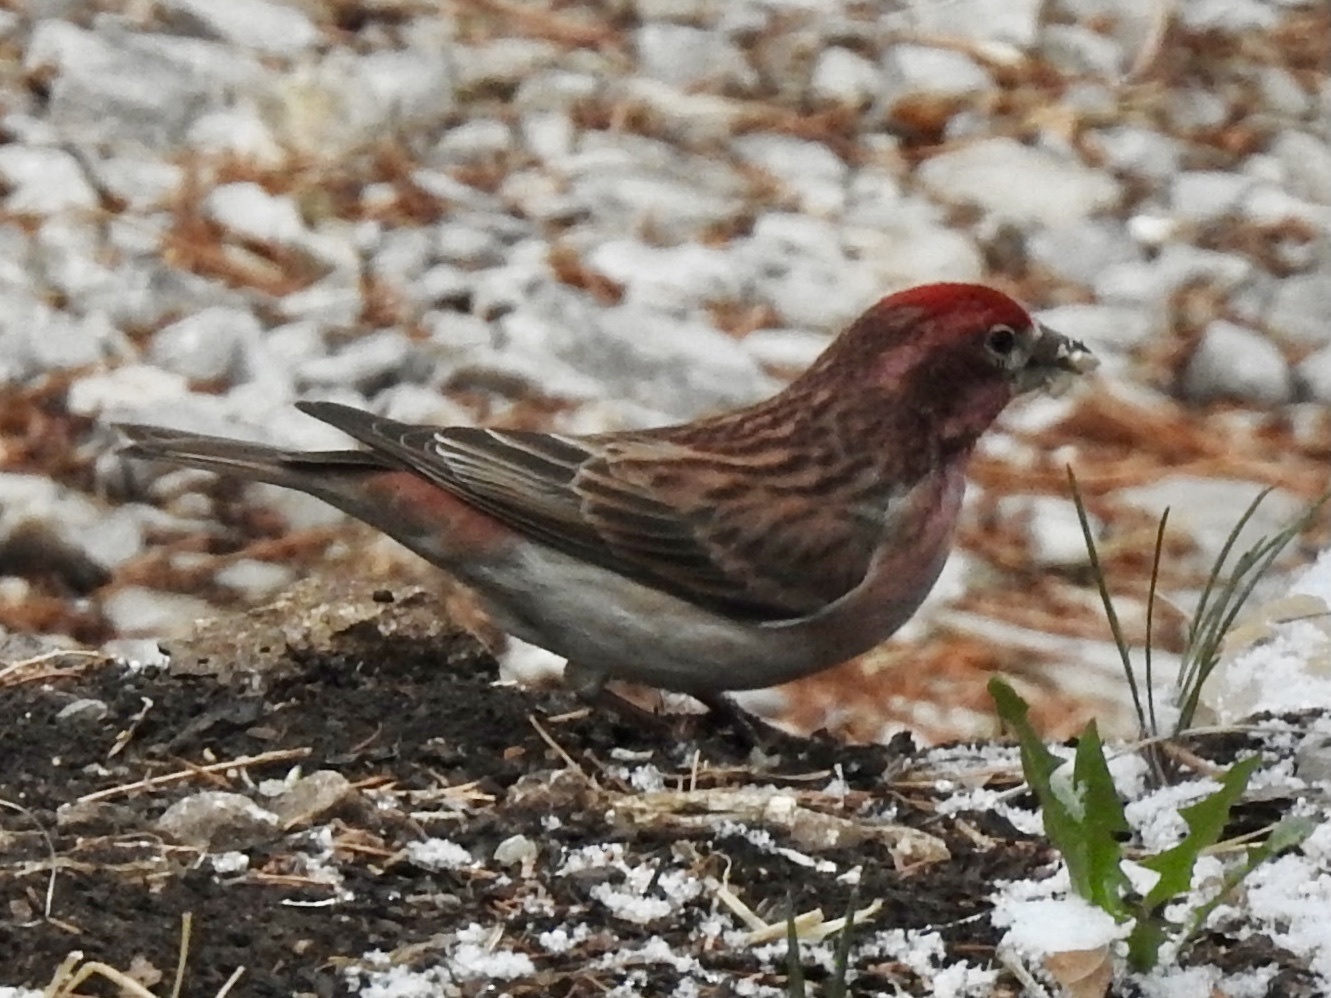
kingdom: Animalia
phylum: Chordata
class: Aves
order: Passeriformes
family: Fringillidae
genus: Haemorhous
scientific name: Haemorhous cassinii
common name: Cassin's finch
